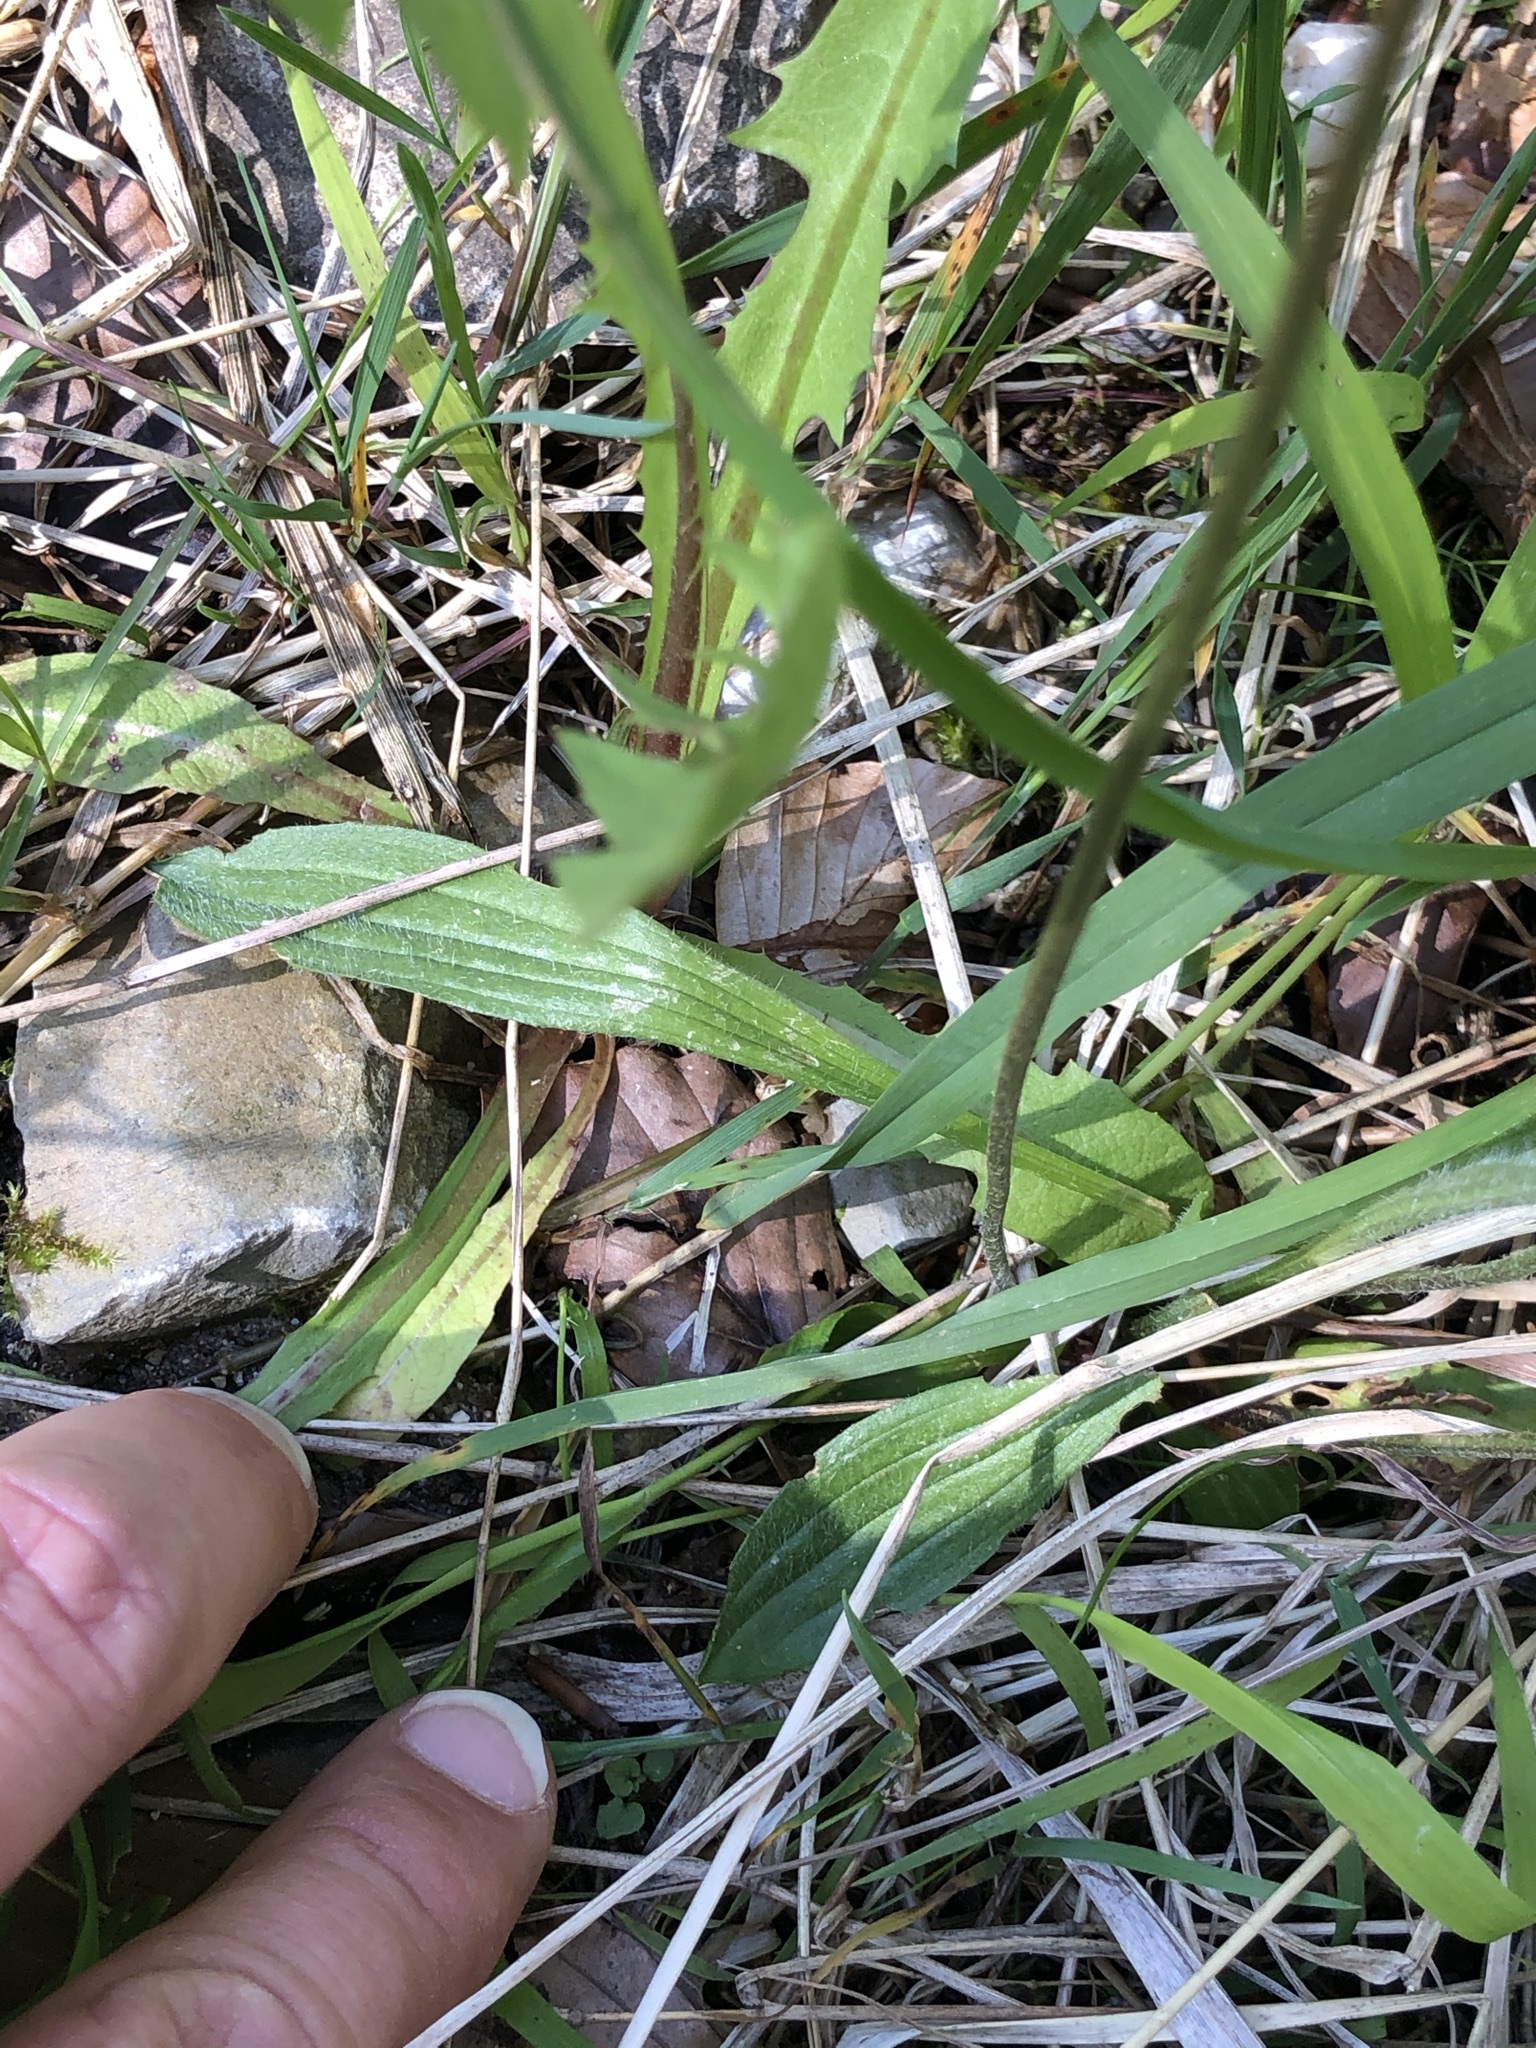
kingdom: Plantae
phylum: Tracheophyta
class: Magnoliopsida
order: Lamiales
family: Plantaginaceae
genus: Plantago
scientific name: Plantago lanceolata
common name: Ribwort plantain
